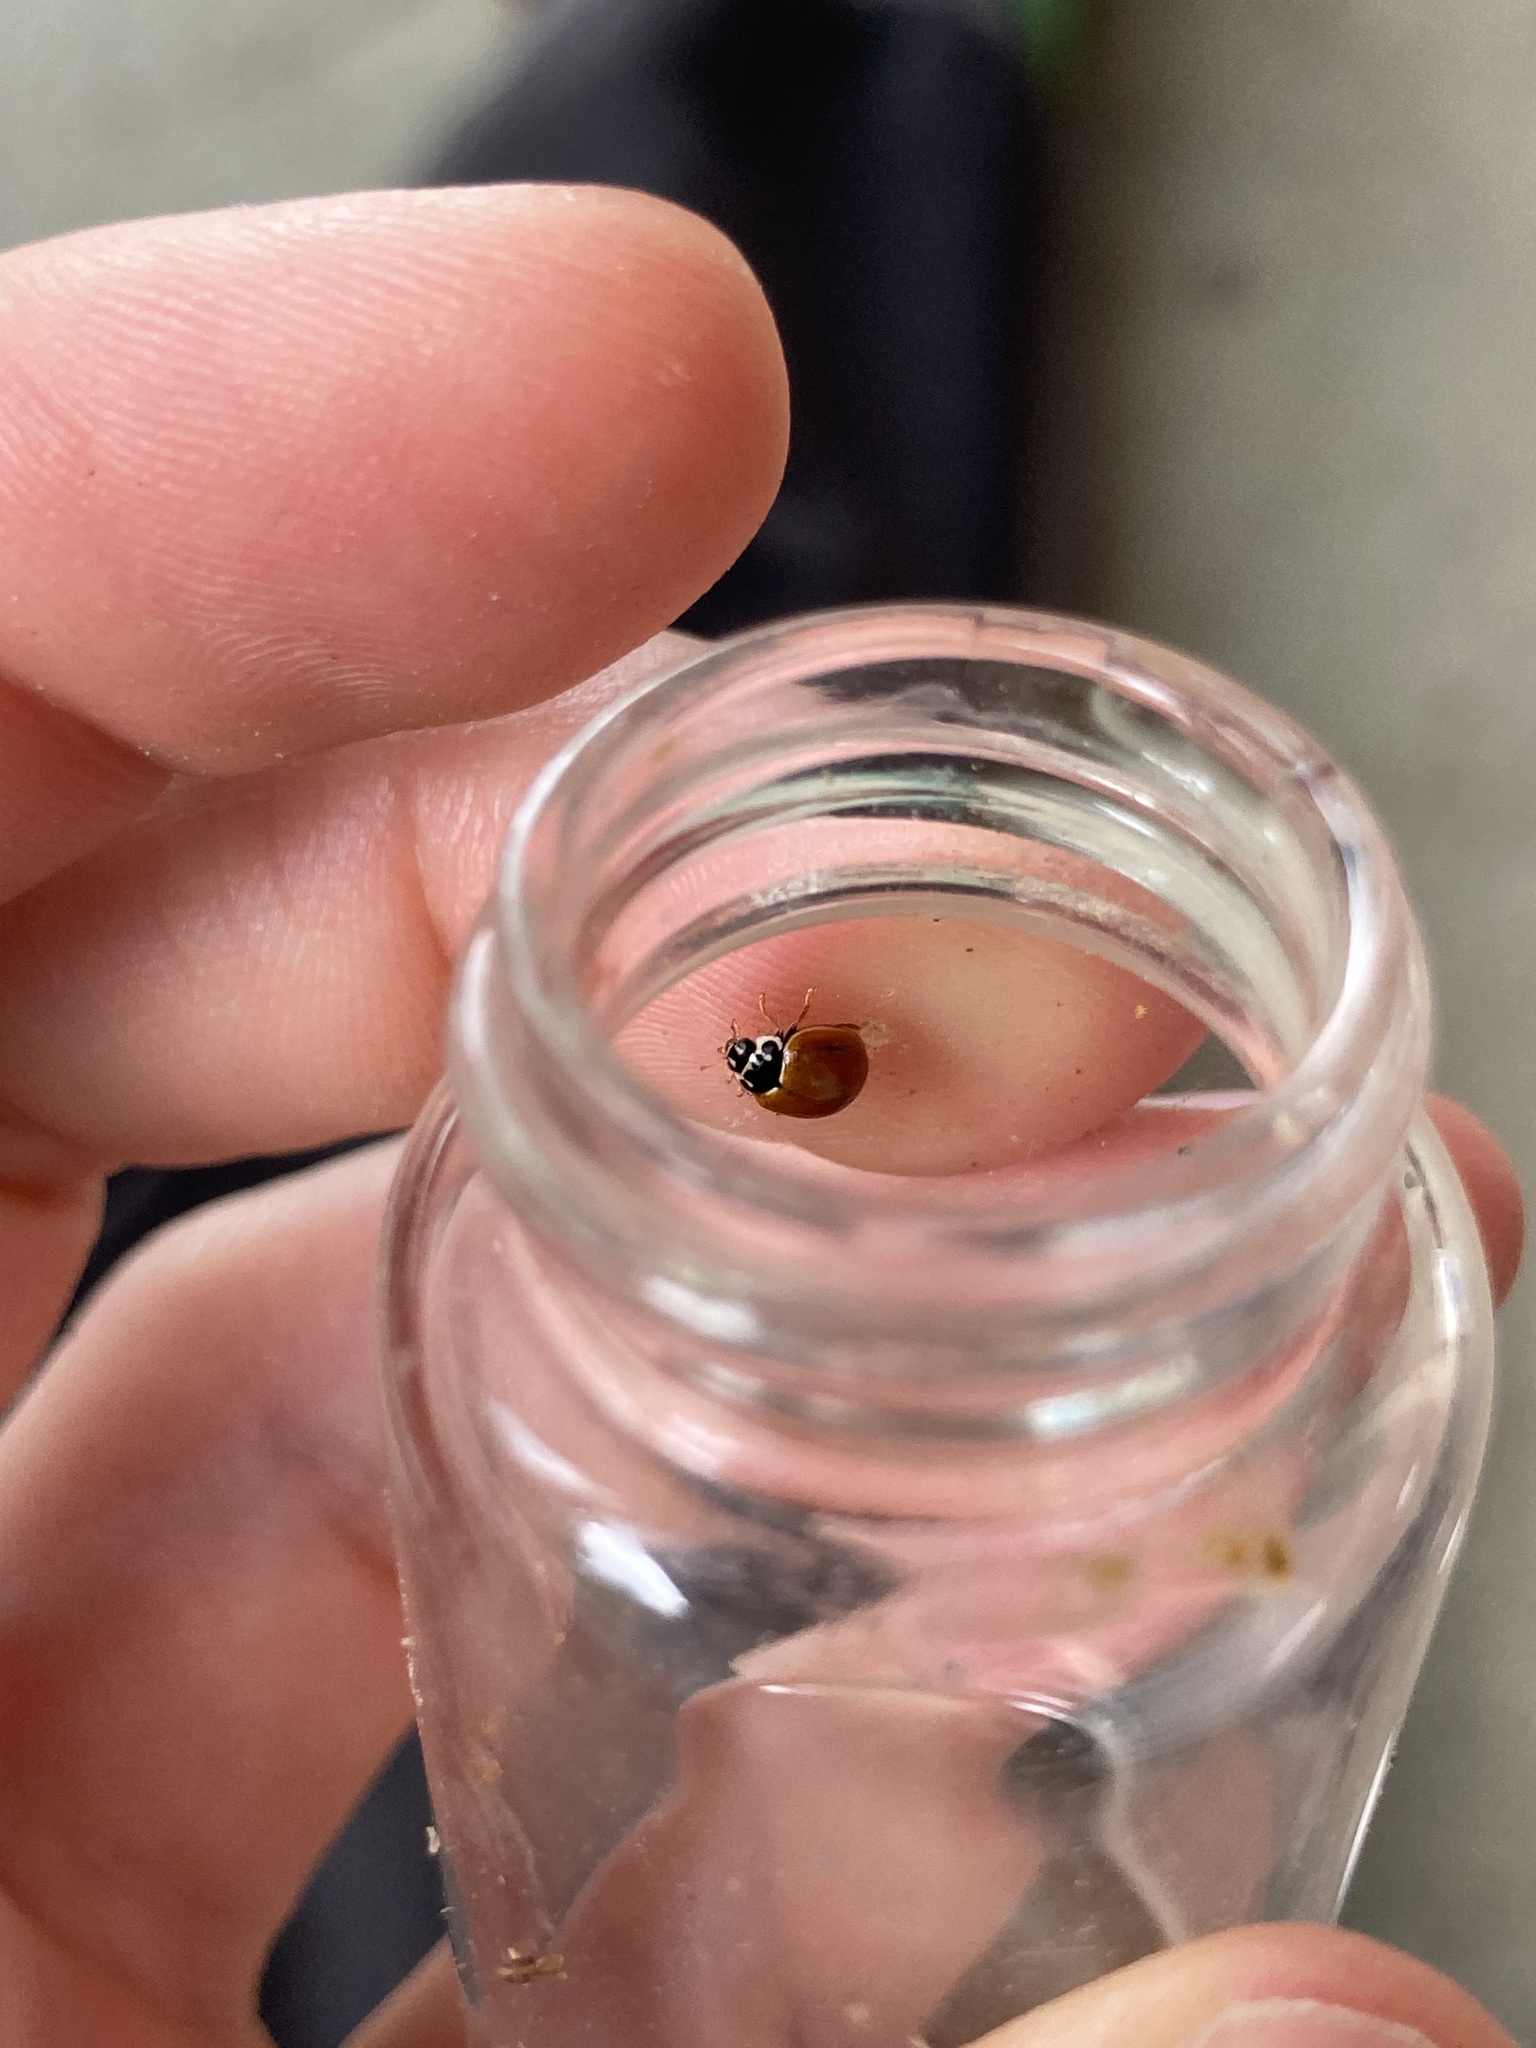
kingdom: Animalia
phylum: Arthropoda
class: Insecta
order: Coleoptera
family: Coccinellidae
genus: Cycloneda
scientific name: Cycloneda munda
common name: Polished lady beetle
